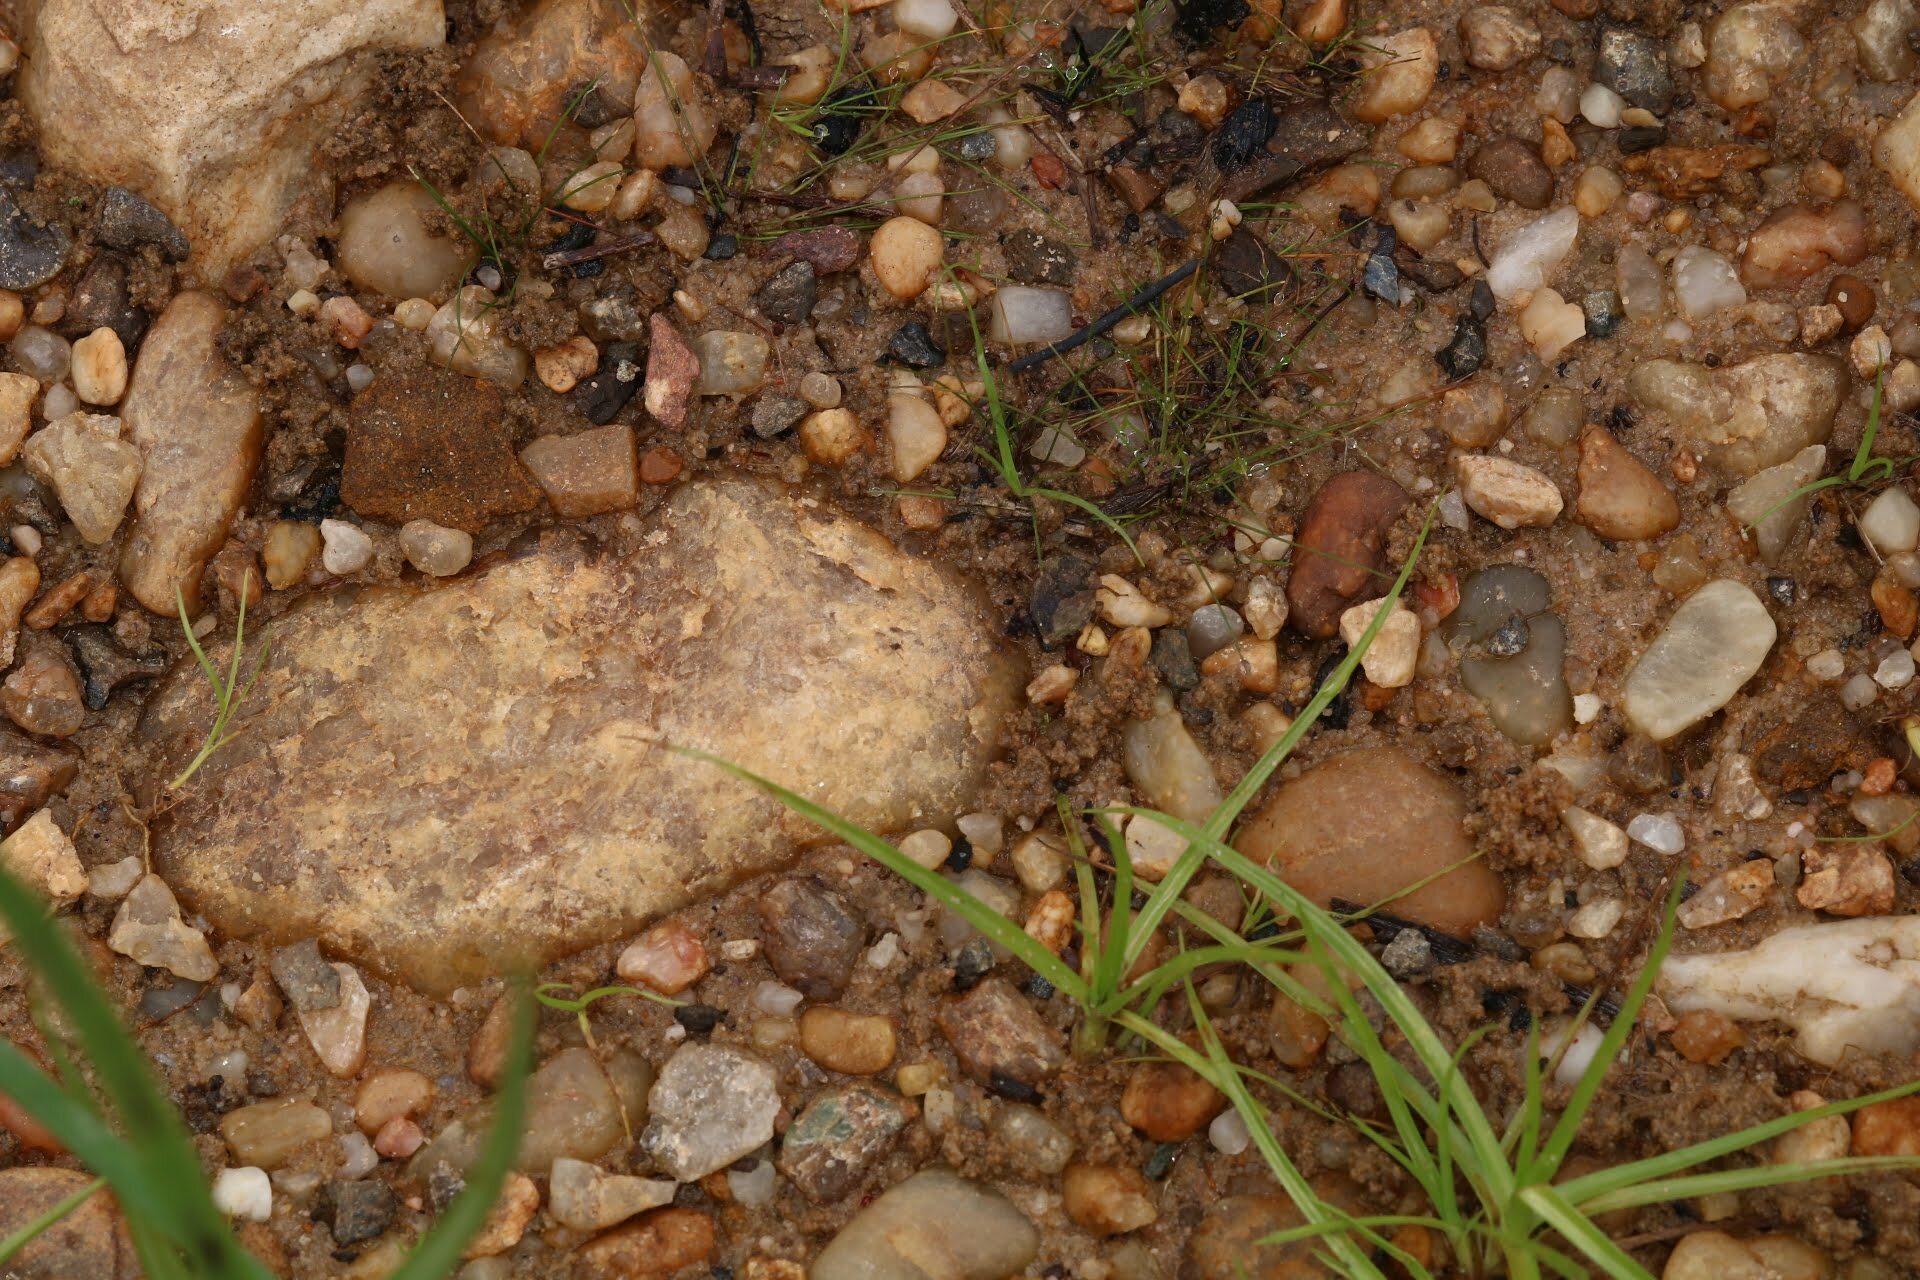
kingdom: Animalia
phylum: Arthropoda
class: Insecta
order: Hemiptera
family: Gelastocoridae
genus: Gelastocoris
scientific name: Gelastocoris oculatus
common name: Toad bug
